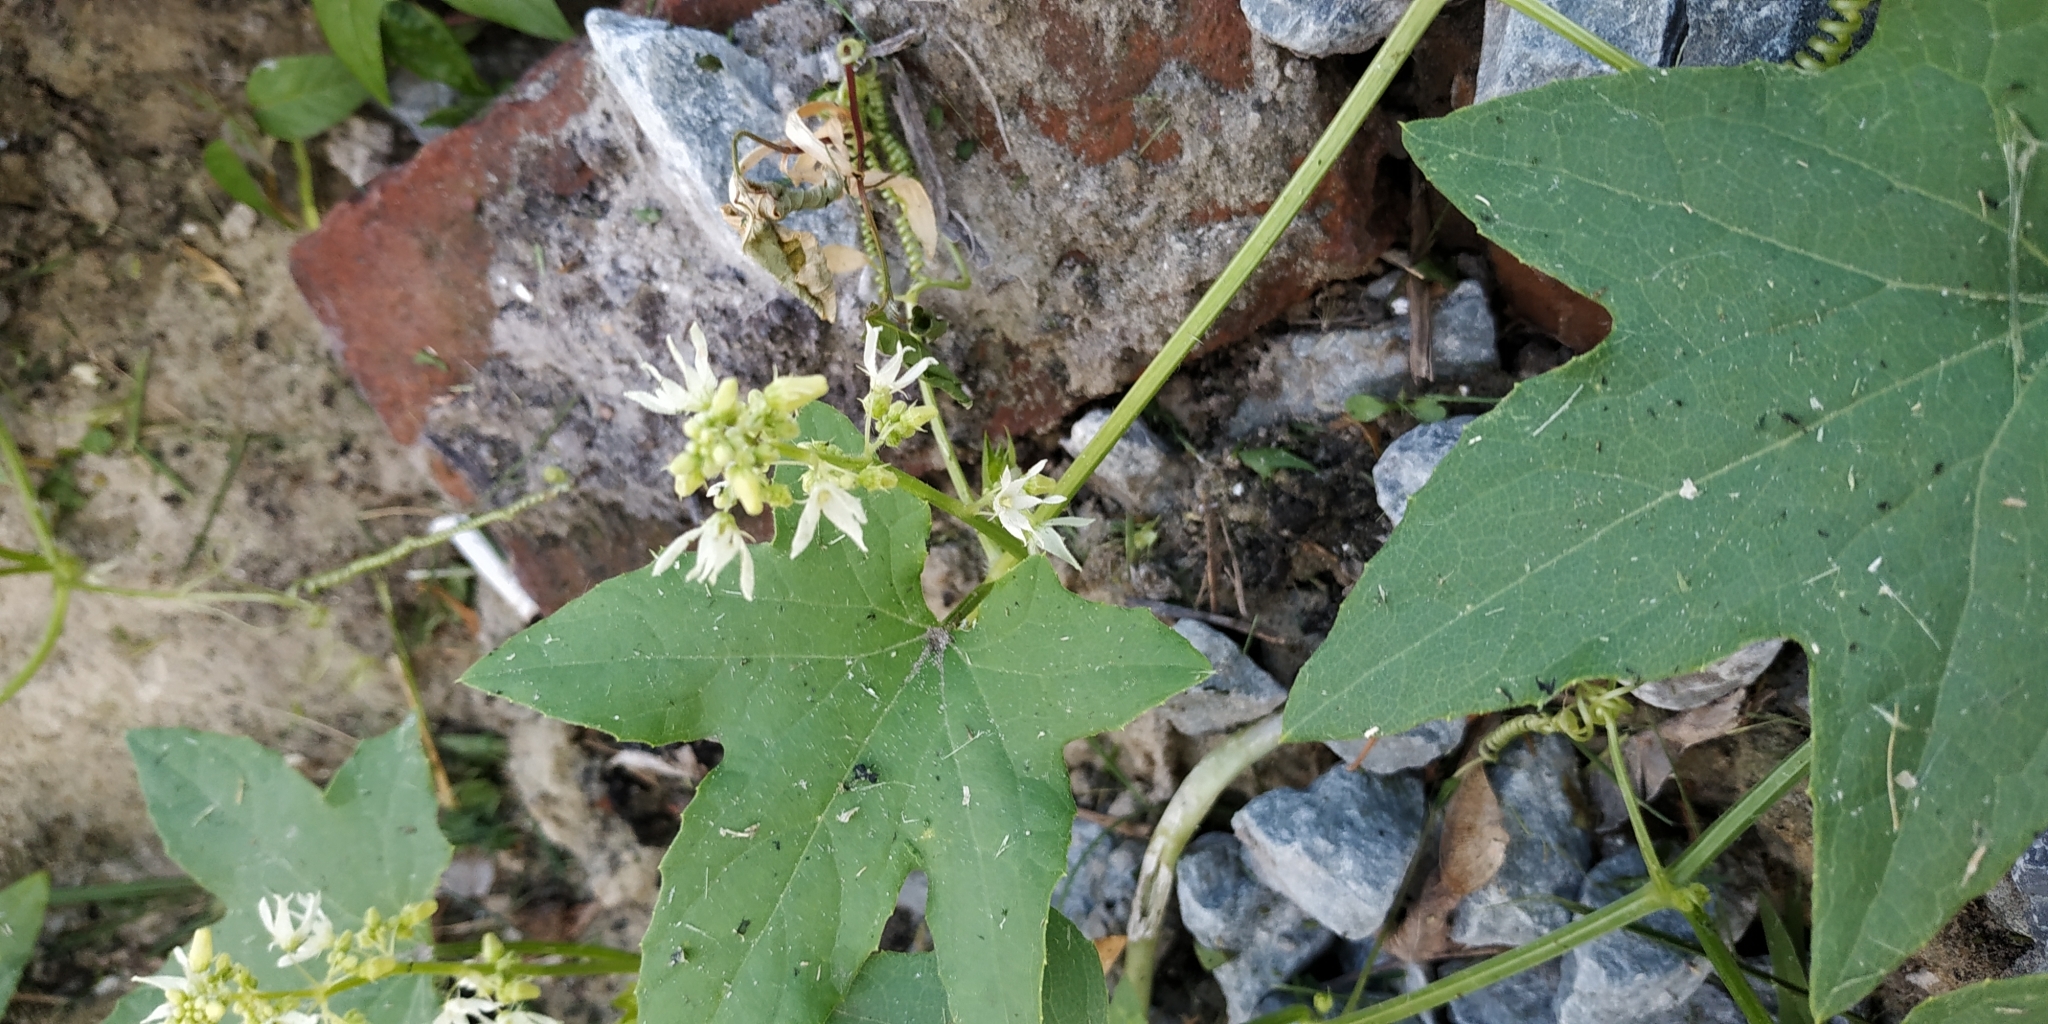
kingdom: Plantae
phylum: Tracheophyta
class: Magnoliopsida
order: Cucurbitales
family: Cucurbitaceae
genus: Echinocystis
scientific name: Echinocystis lobata
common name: Wild cucumber
